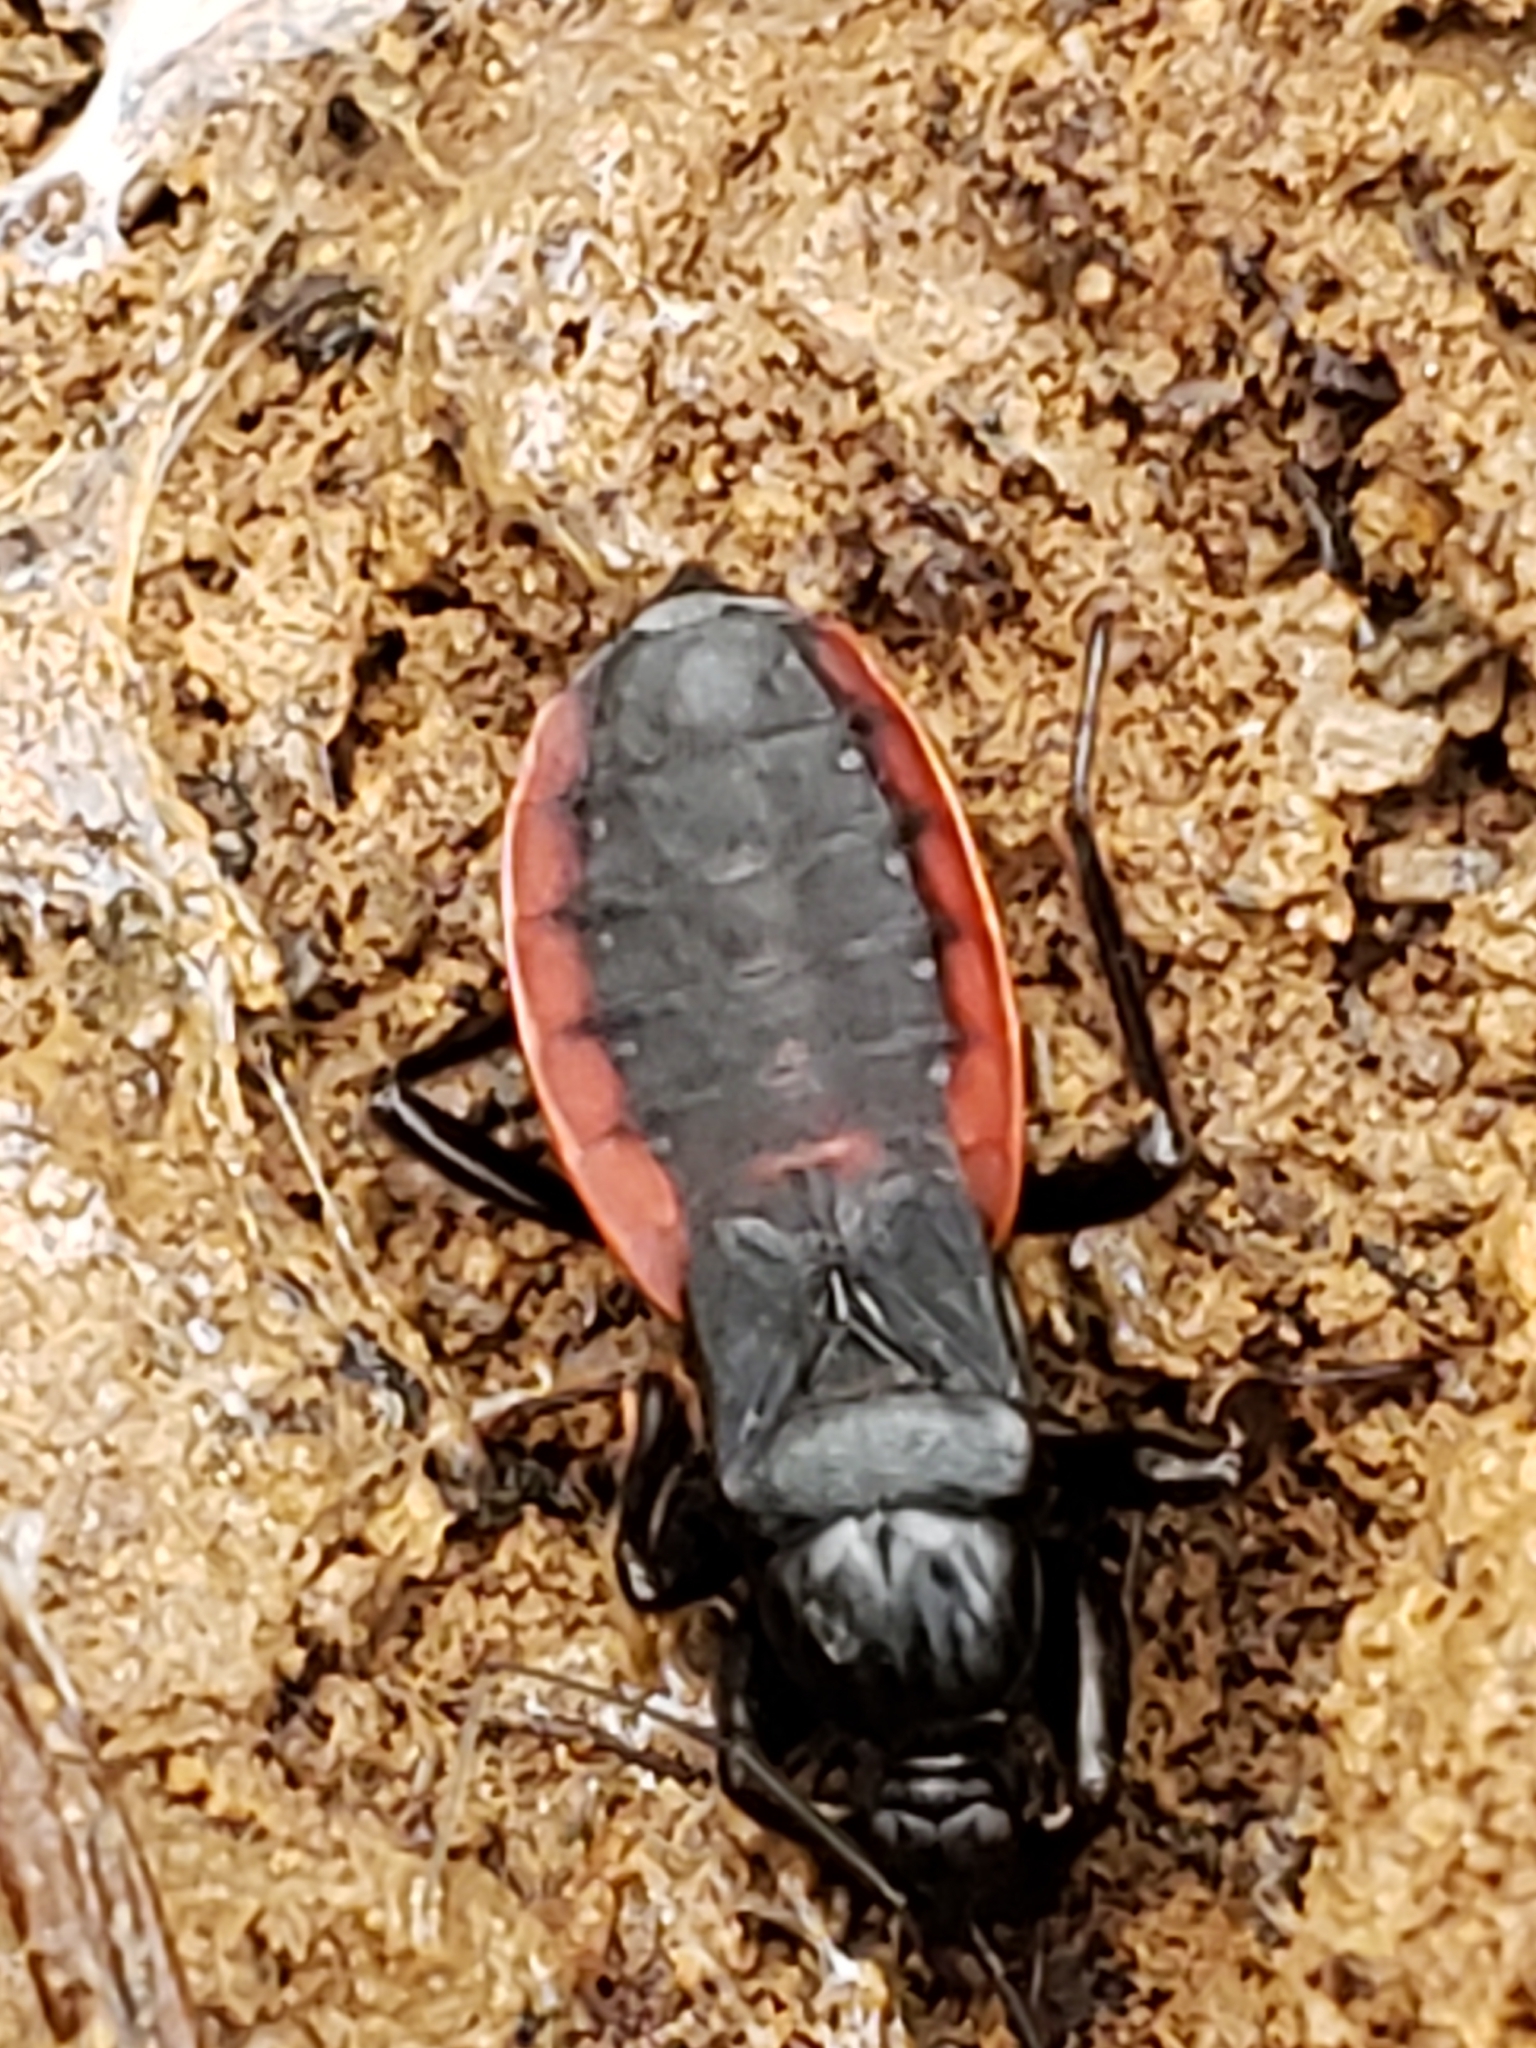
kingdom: Animalia
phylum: Arthropoda
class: Insecta
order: Hemiptera
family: Reduviidae
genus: Melanolestes
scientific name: Melanolestes picipes
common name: Assassin bug
